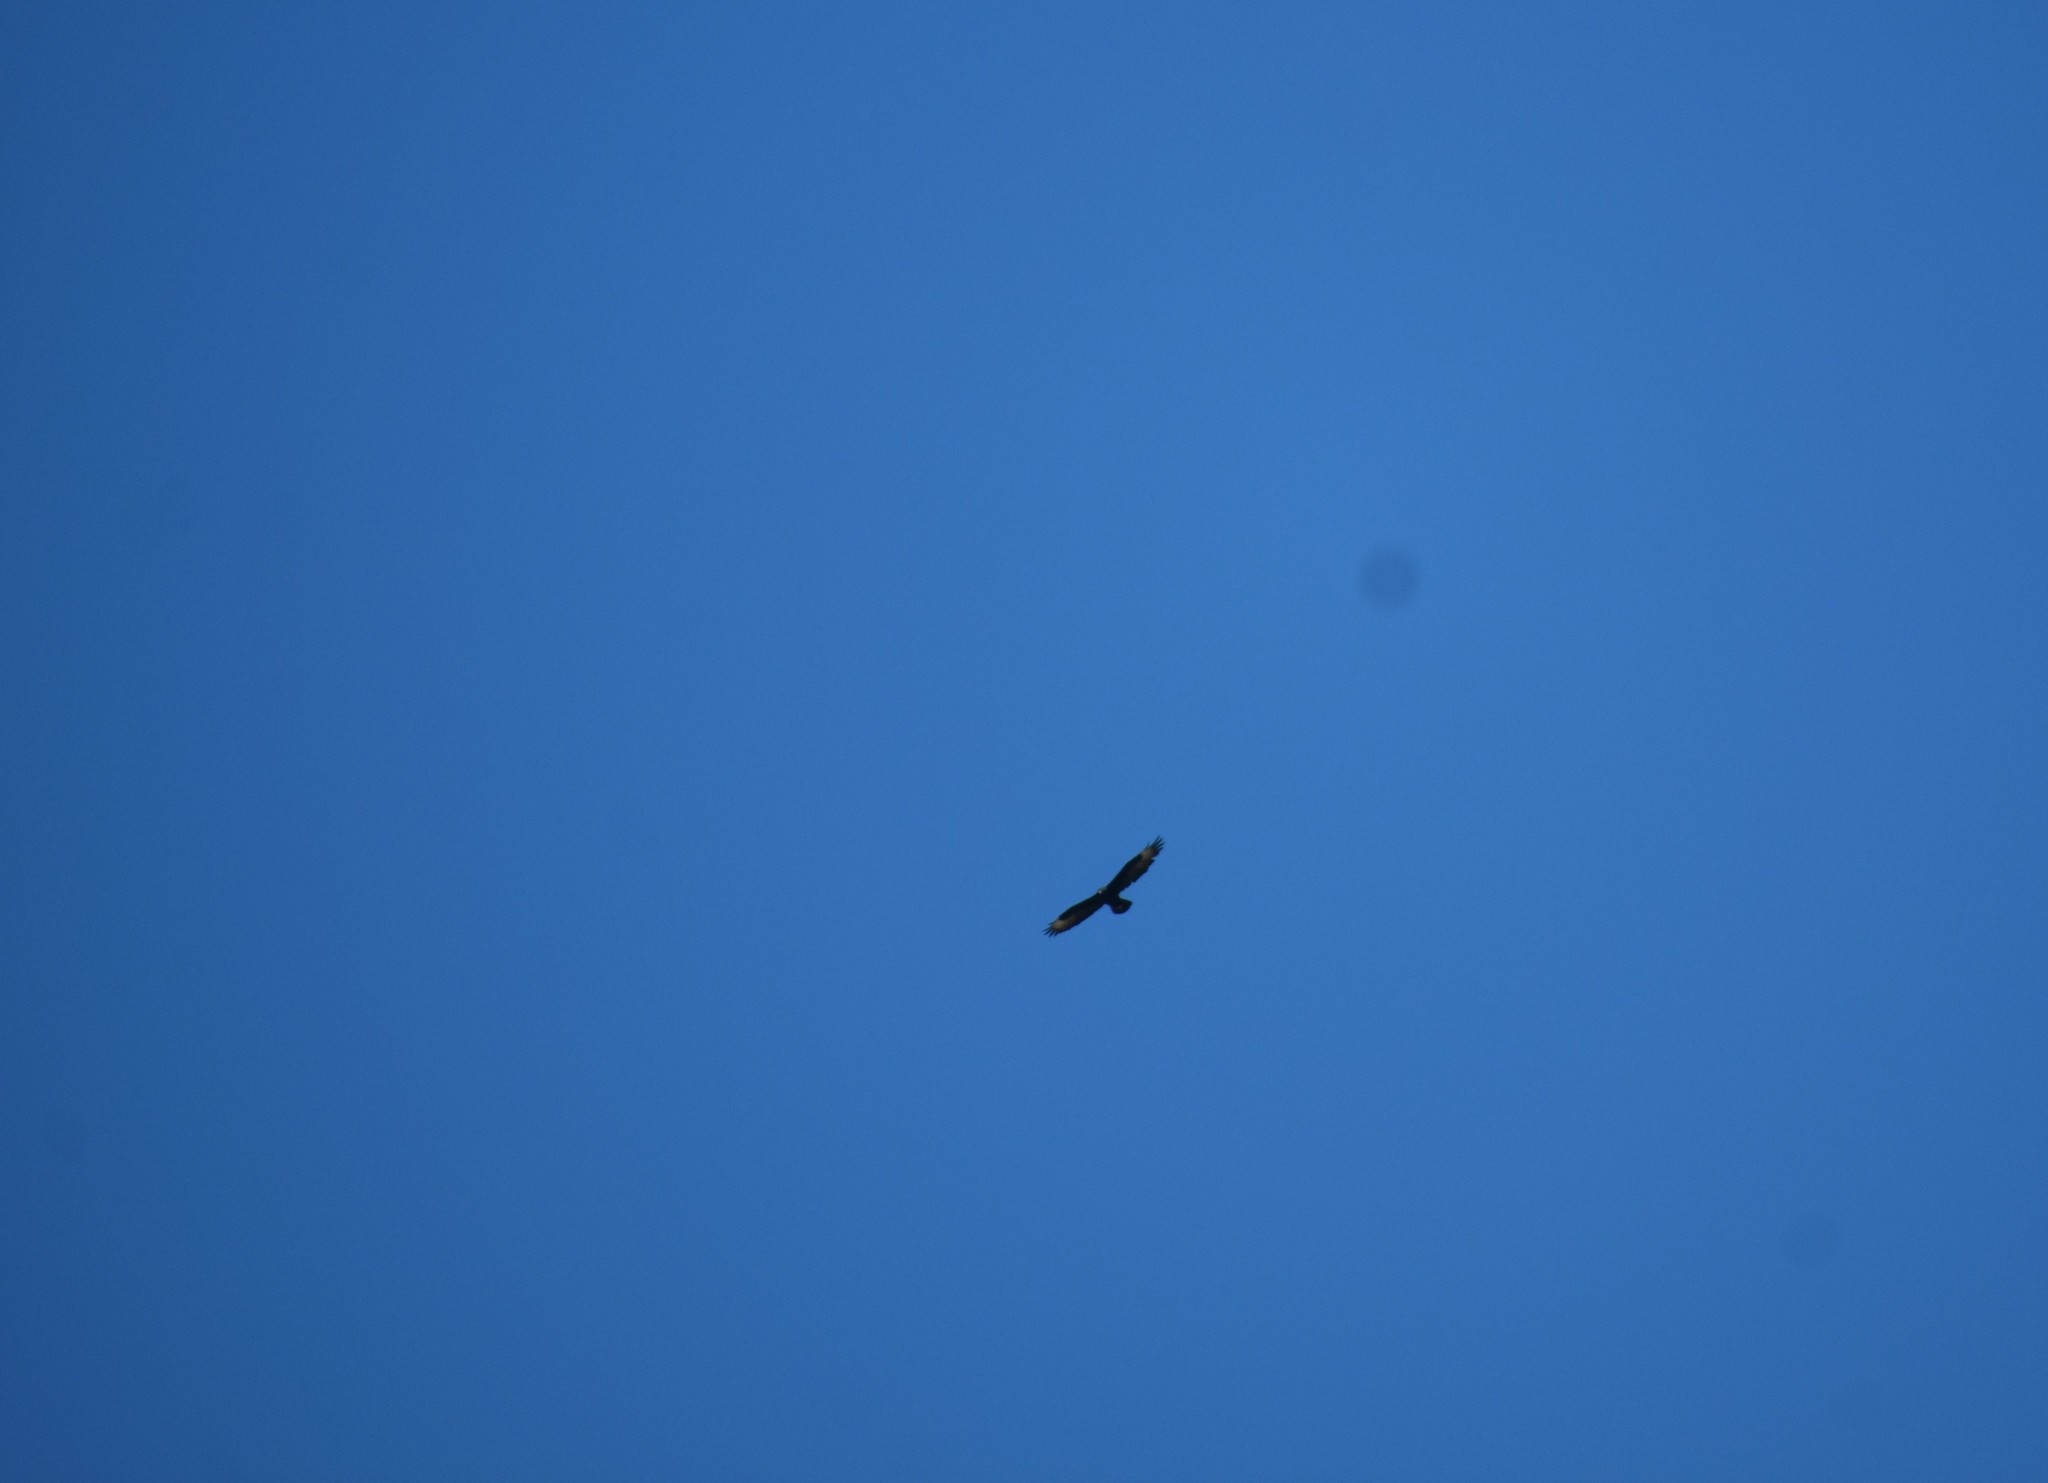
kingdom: Animalia
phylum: Chordata
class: Aves
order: Accipitriformes
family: Accipitridae
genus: Aquila
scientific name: Aquila verreauxii
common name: Verreaux's eagle
